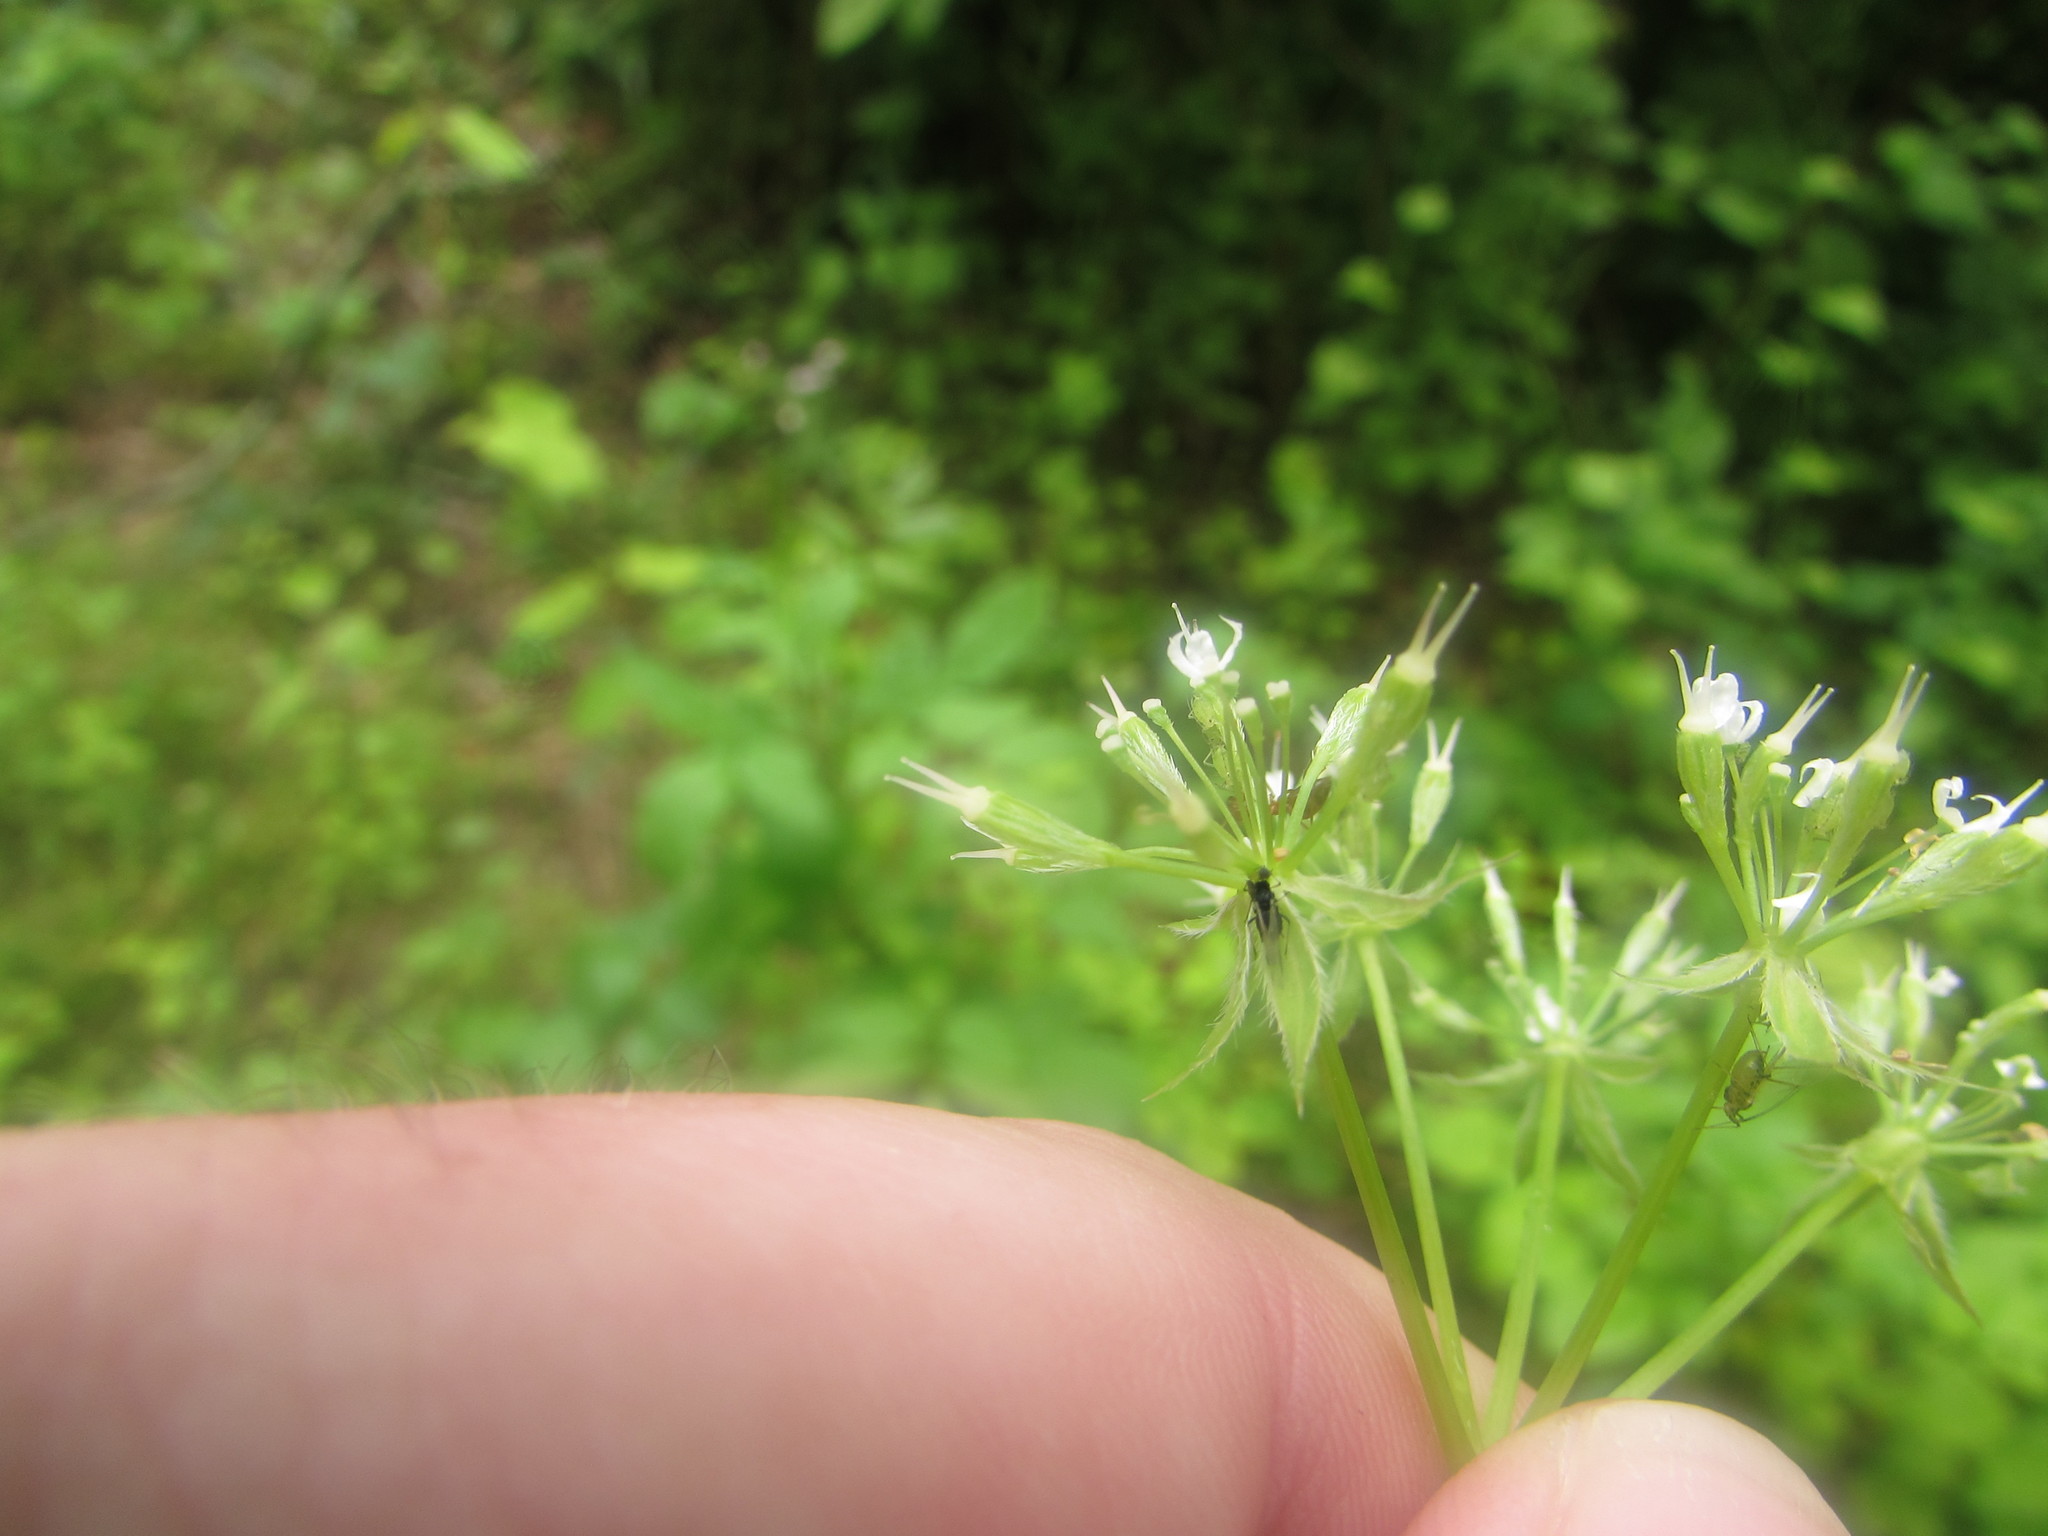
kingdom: Plantae
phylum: Tracheophyta
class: Magnoliopsida
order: Apiales
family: Apiaceae
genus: Osmorhiza
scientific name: Osmorhiza longistylis
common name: Smooth sweet cicely
